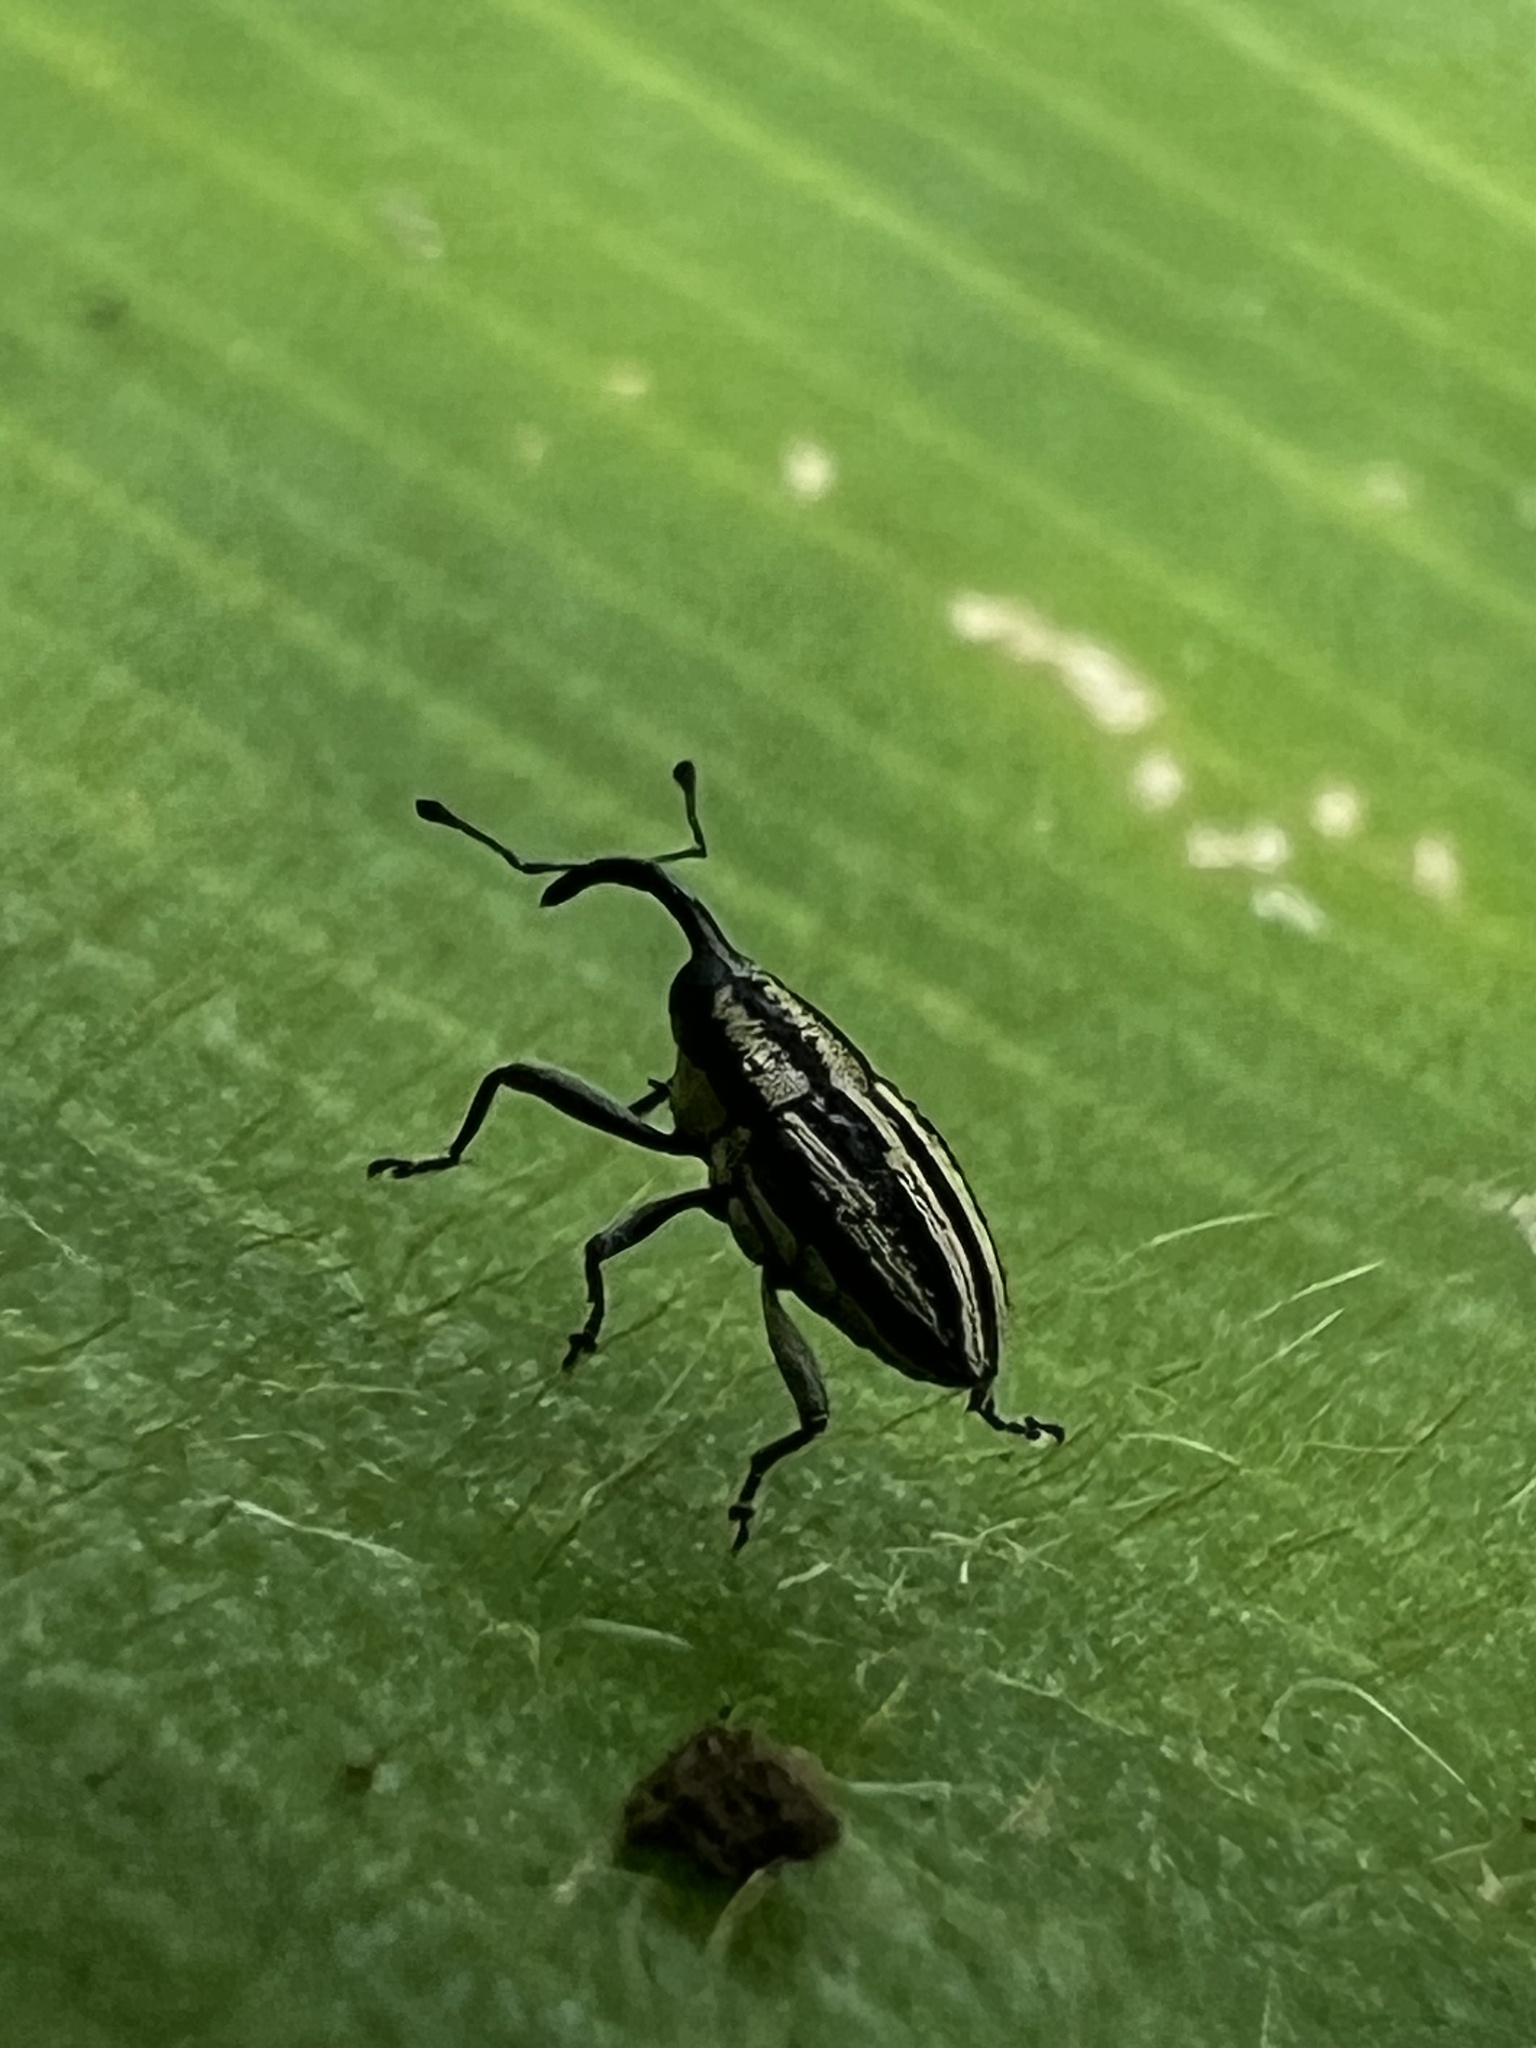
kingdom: Animalia
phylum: Arthropoda
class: Insecta
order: Coleoptera
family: Curculionidae
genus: Linogeraeus
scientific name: Linogeraeus lineellus
